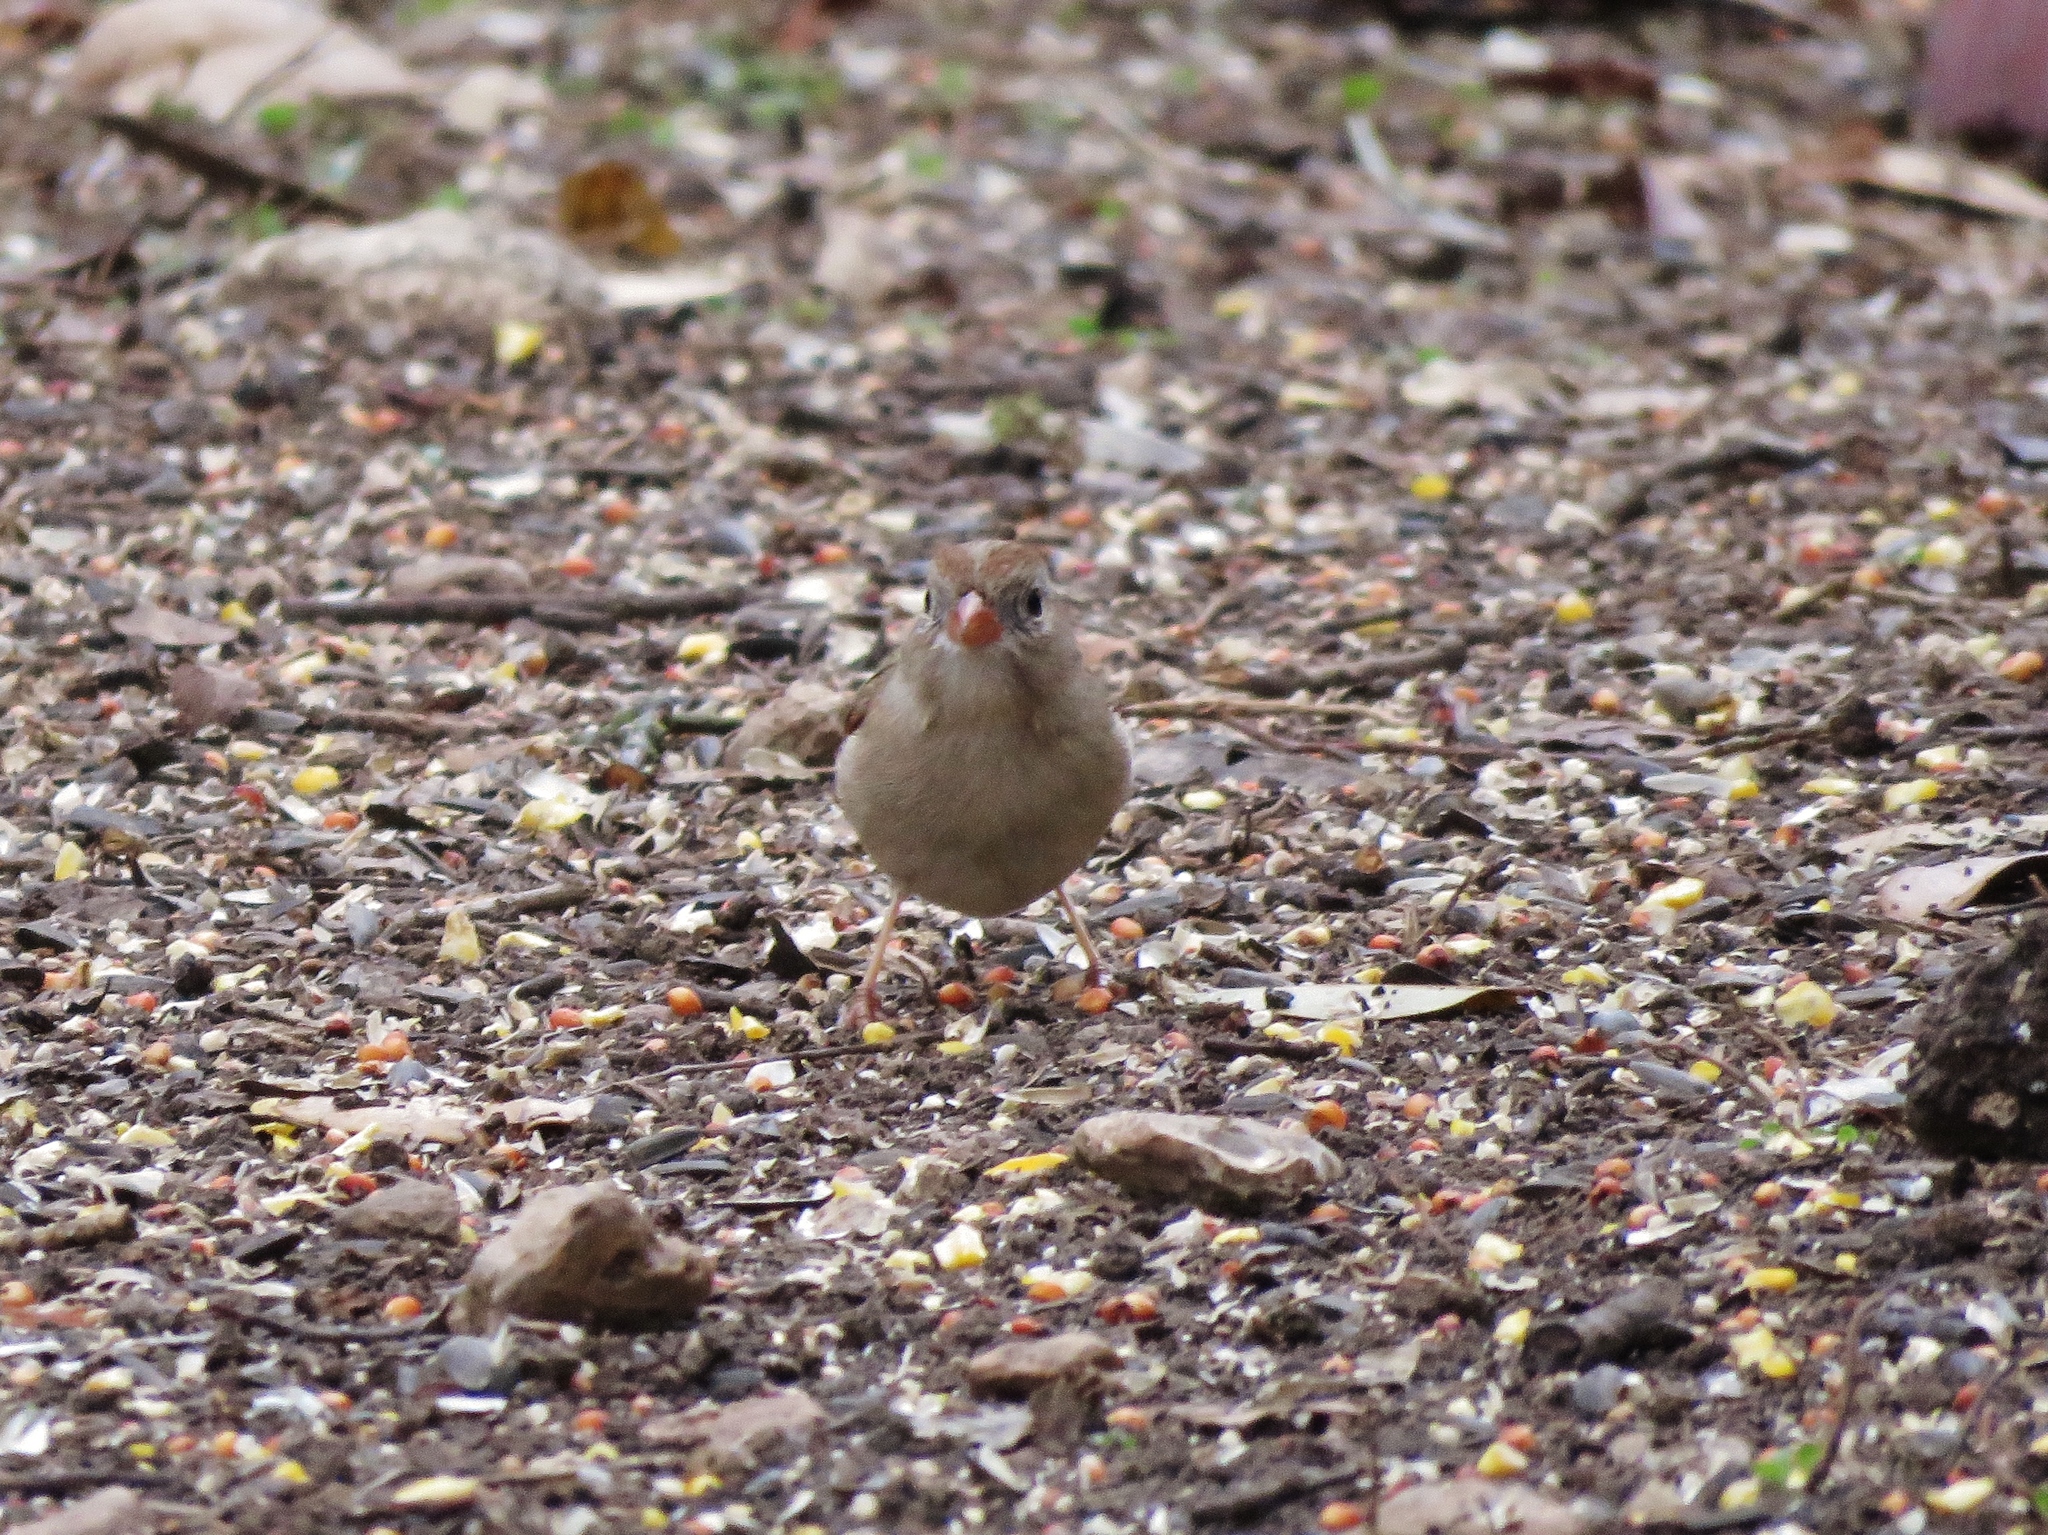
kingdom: Animalia
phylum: Chordata
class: Aves
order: Passeriformes
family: Passerellidae
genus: Spizella
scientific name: Spizella pusilla
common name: Field sparrow
